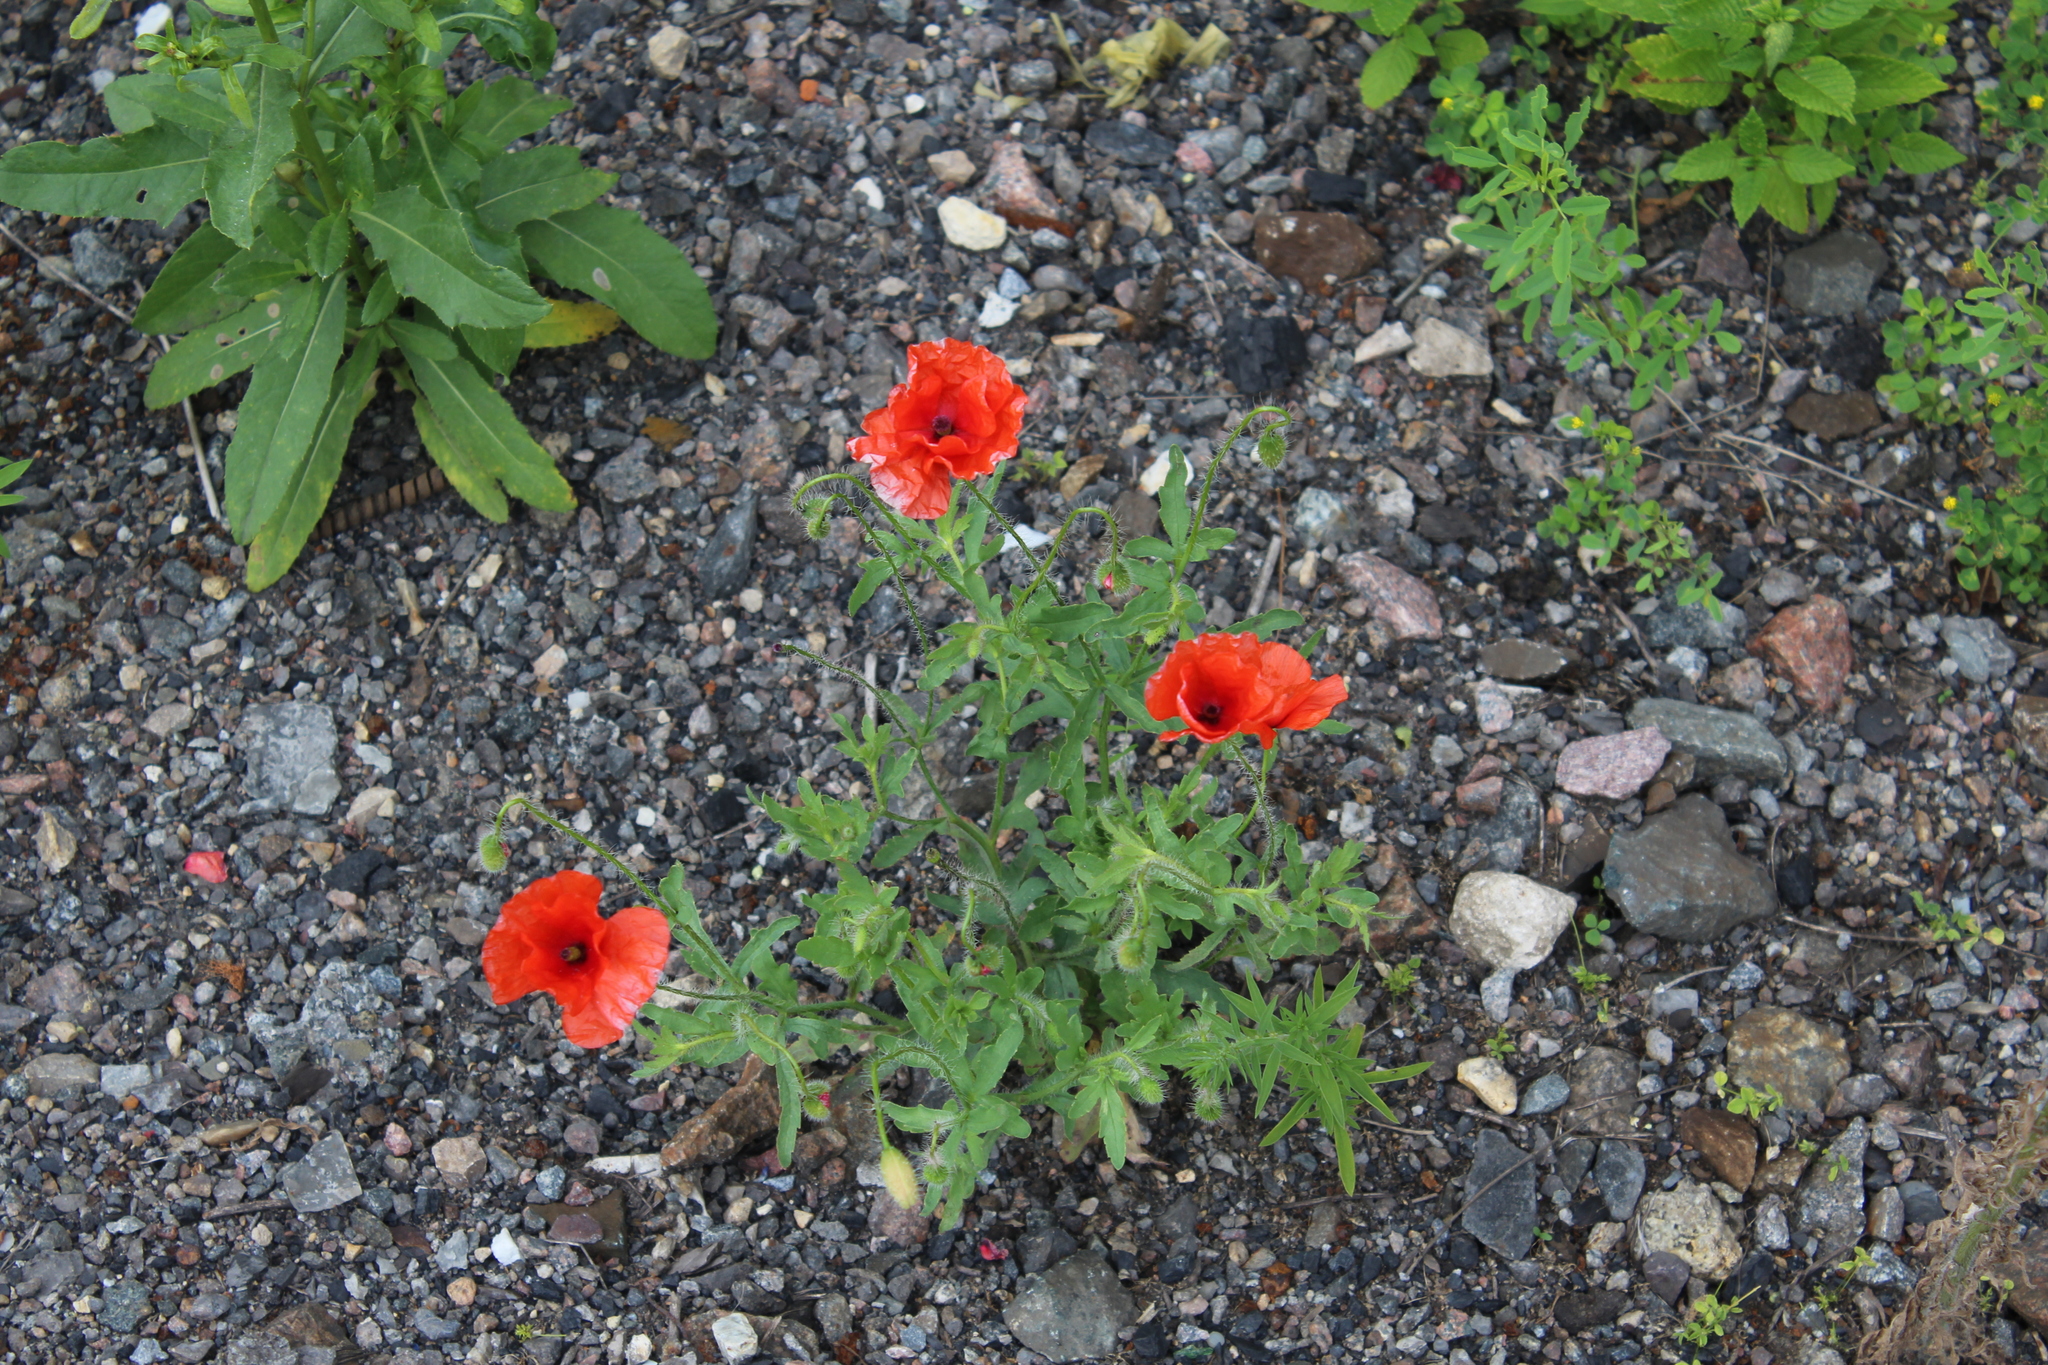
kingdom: Plantae
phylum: Tracheophyta
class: Magnoliopsida
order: Ranunculales
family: Papaveraceae
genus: Papaver
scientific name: Papaver rhoeas
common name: Corn poppy
